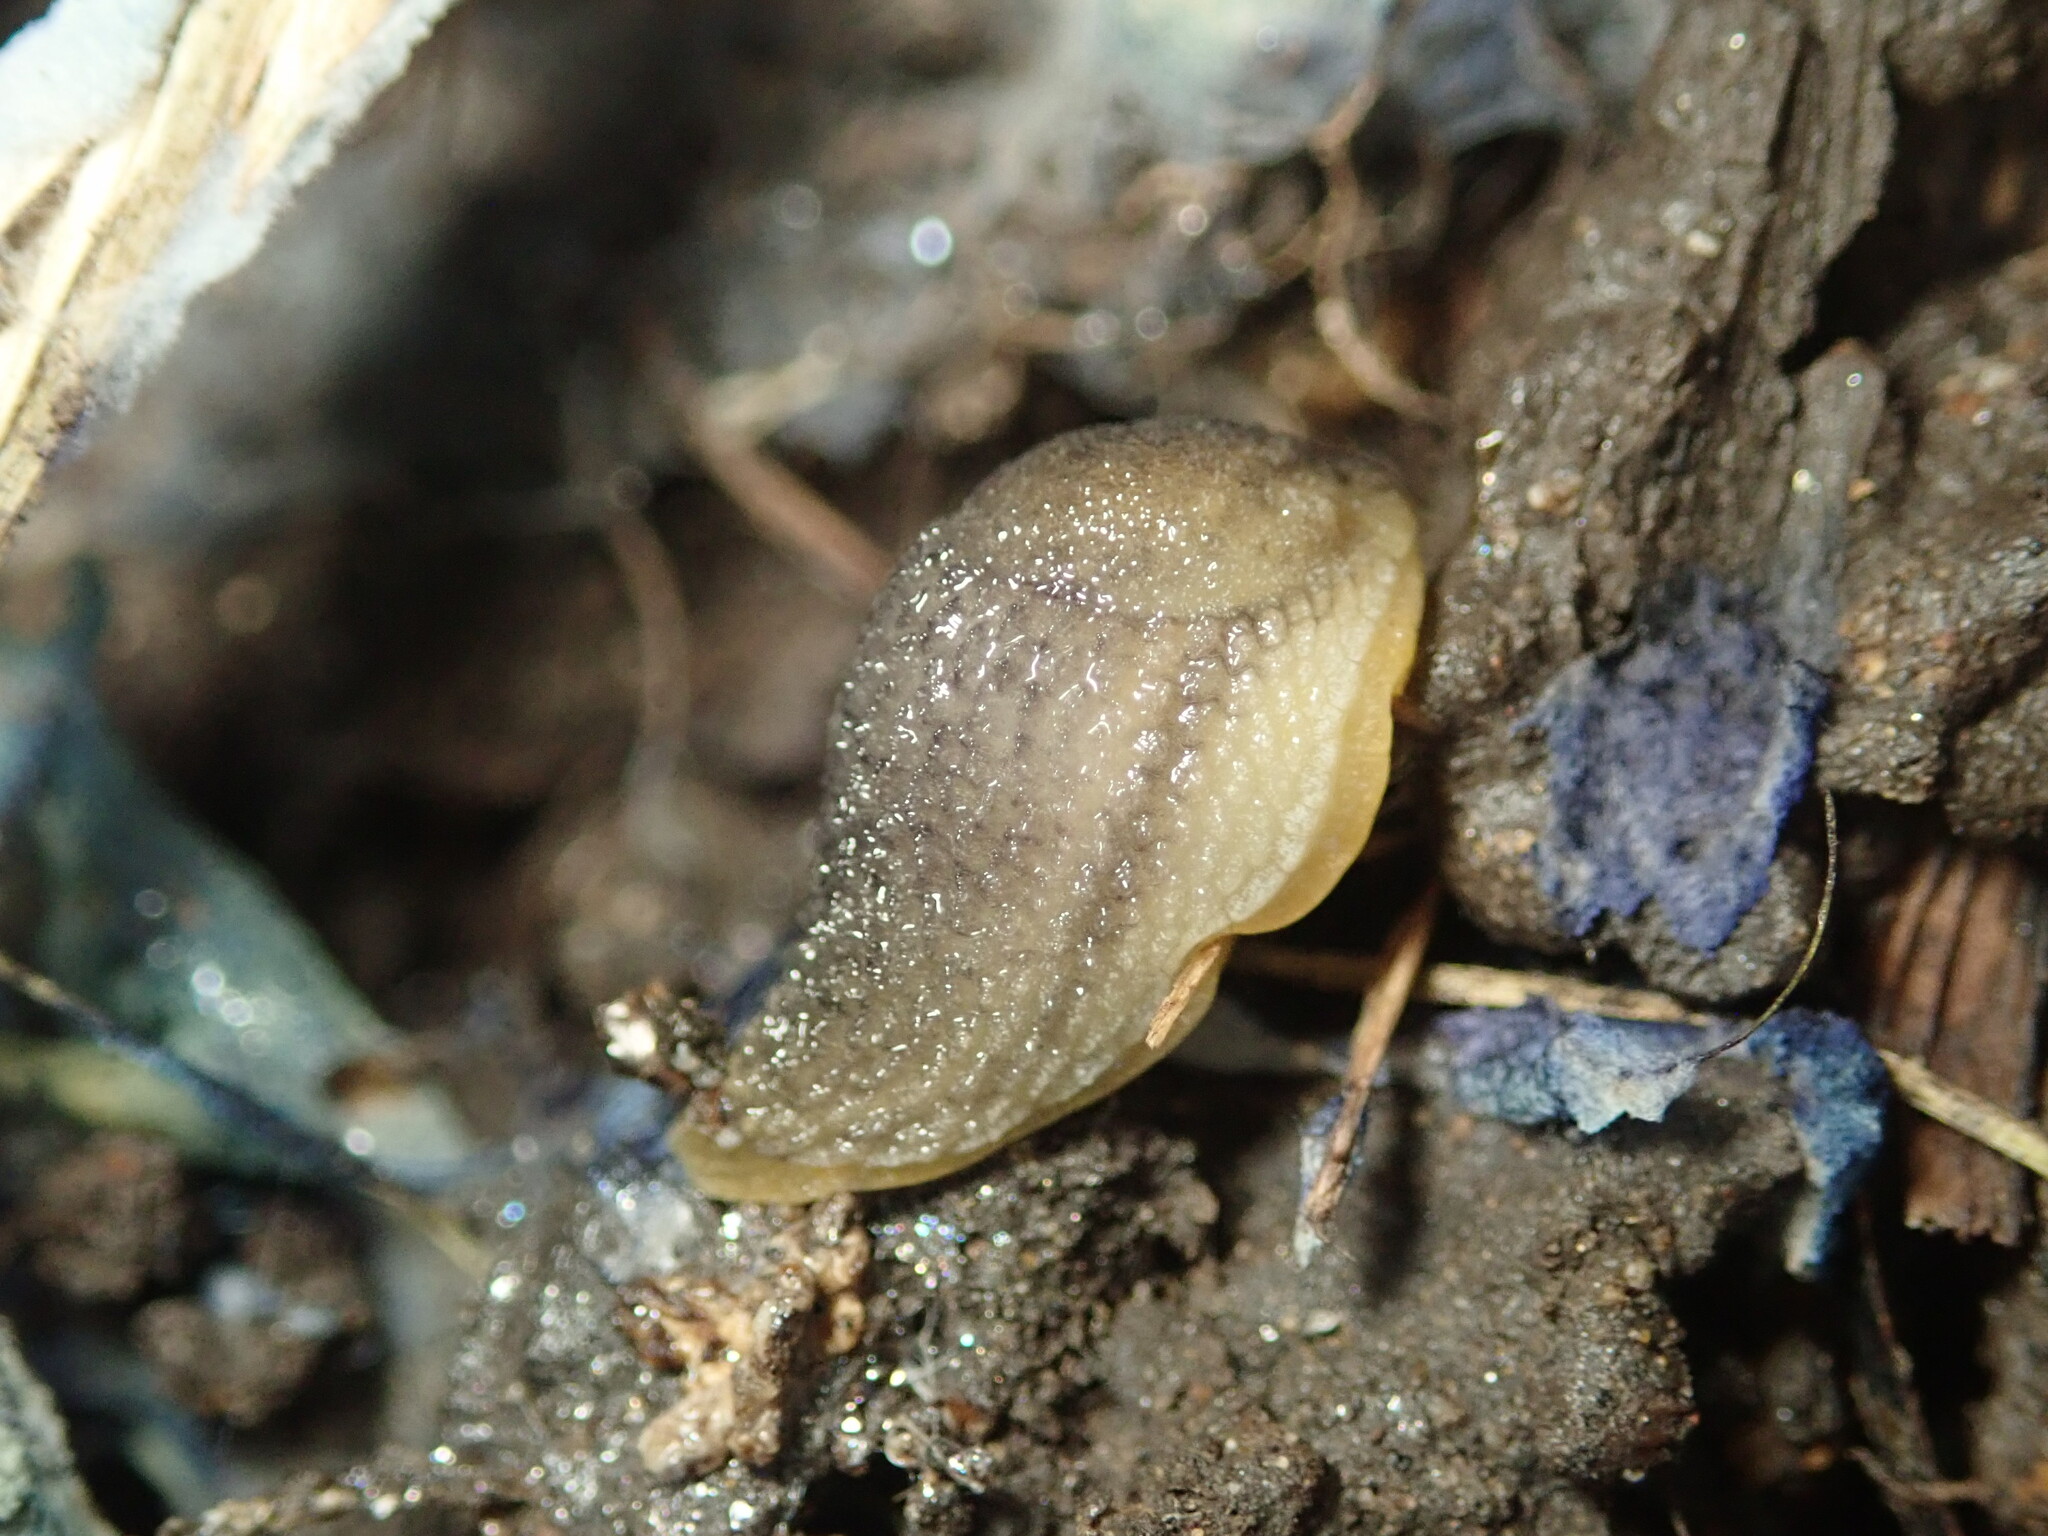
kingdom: Animalia
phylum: Mollusca
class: Gastropoda
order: Stylommatophora
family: Arionidae
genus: Arion
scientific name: Arion intermedius
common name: Hedgehog slug
